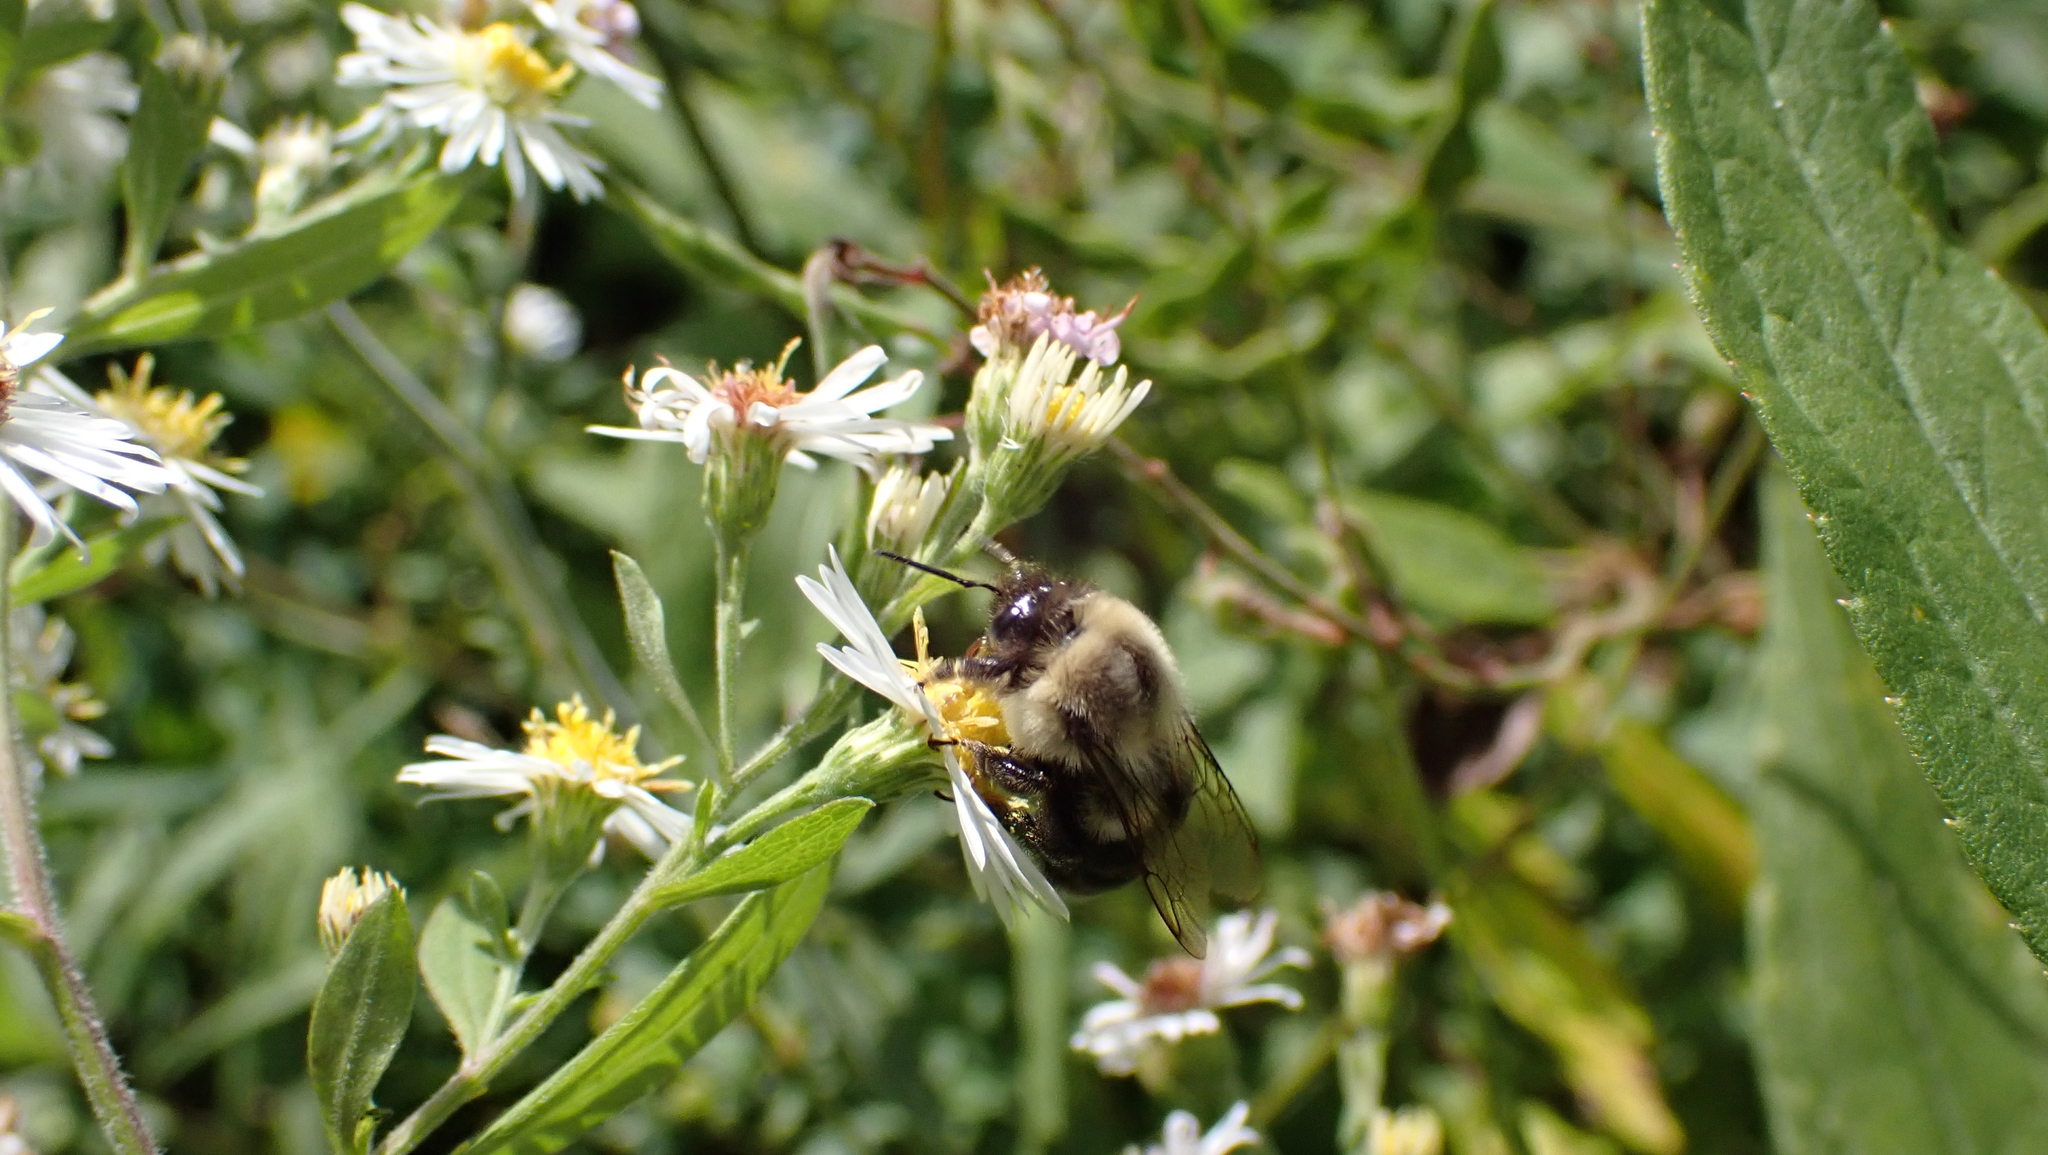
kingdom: Animalia
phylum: Arthropoda
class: Insecta
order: Hymenoptera
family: Apidae
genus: Bombus
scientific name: Bombus impatiens
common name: Common eastern bumble bee
